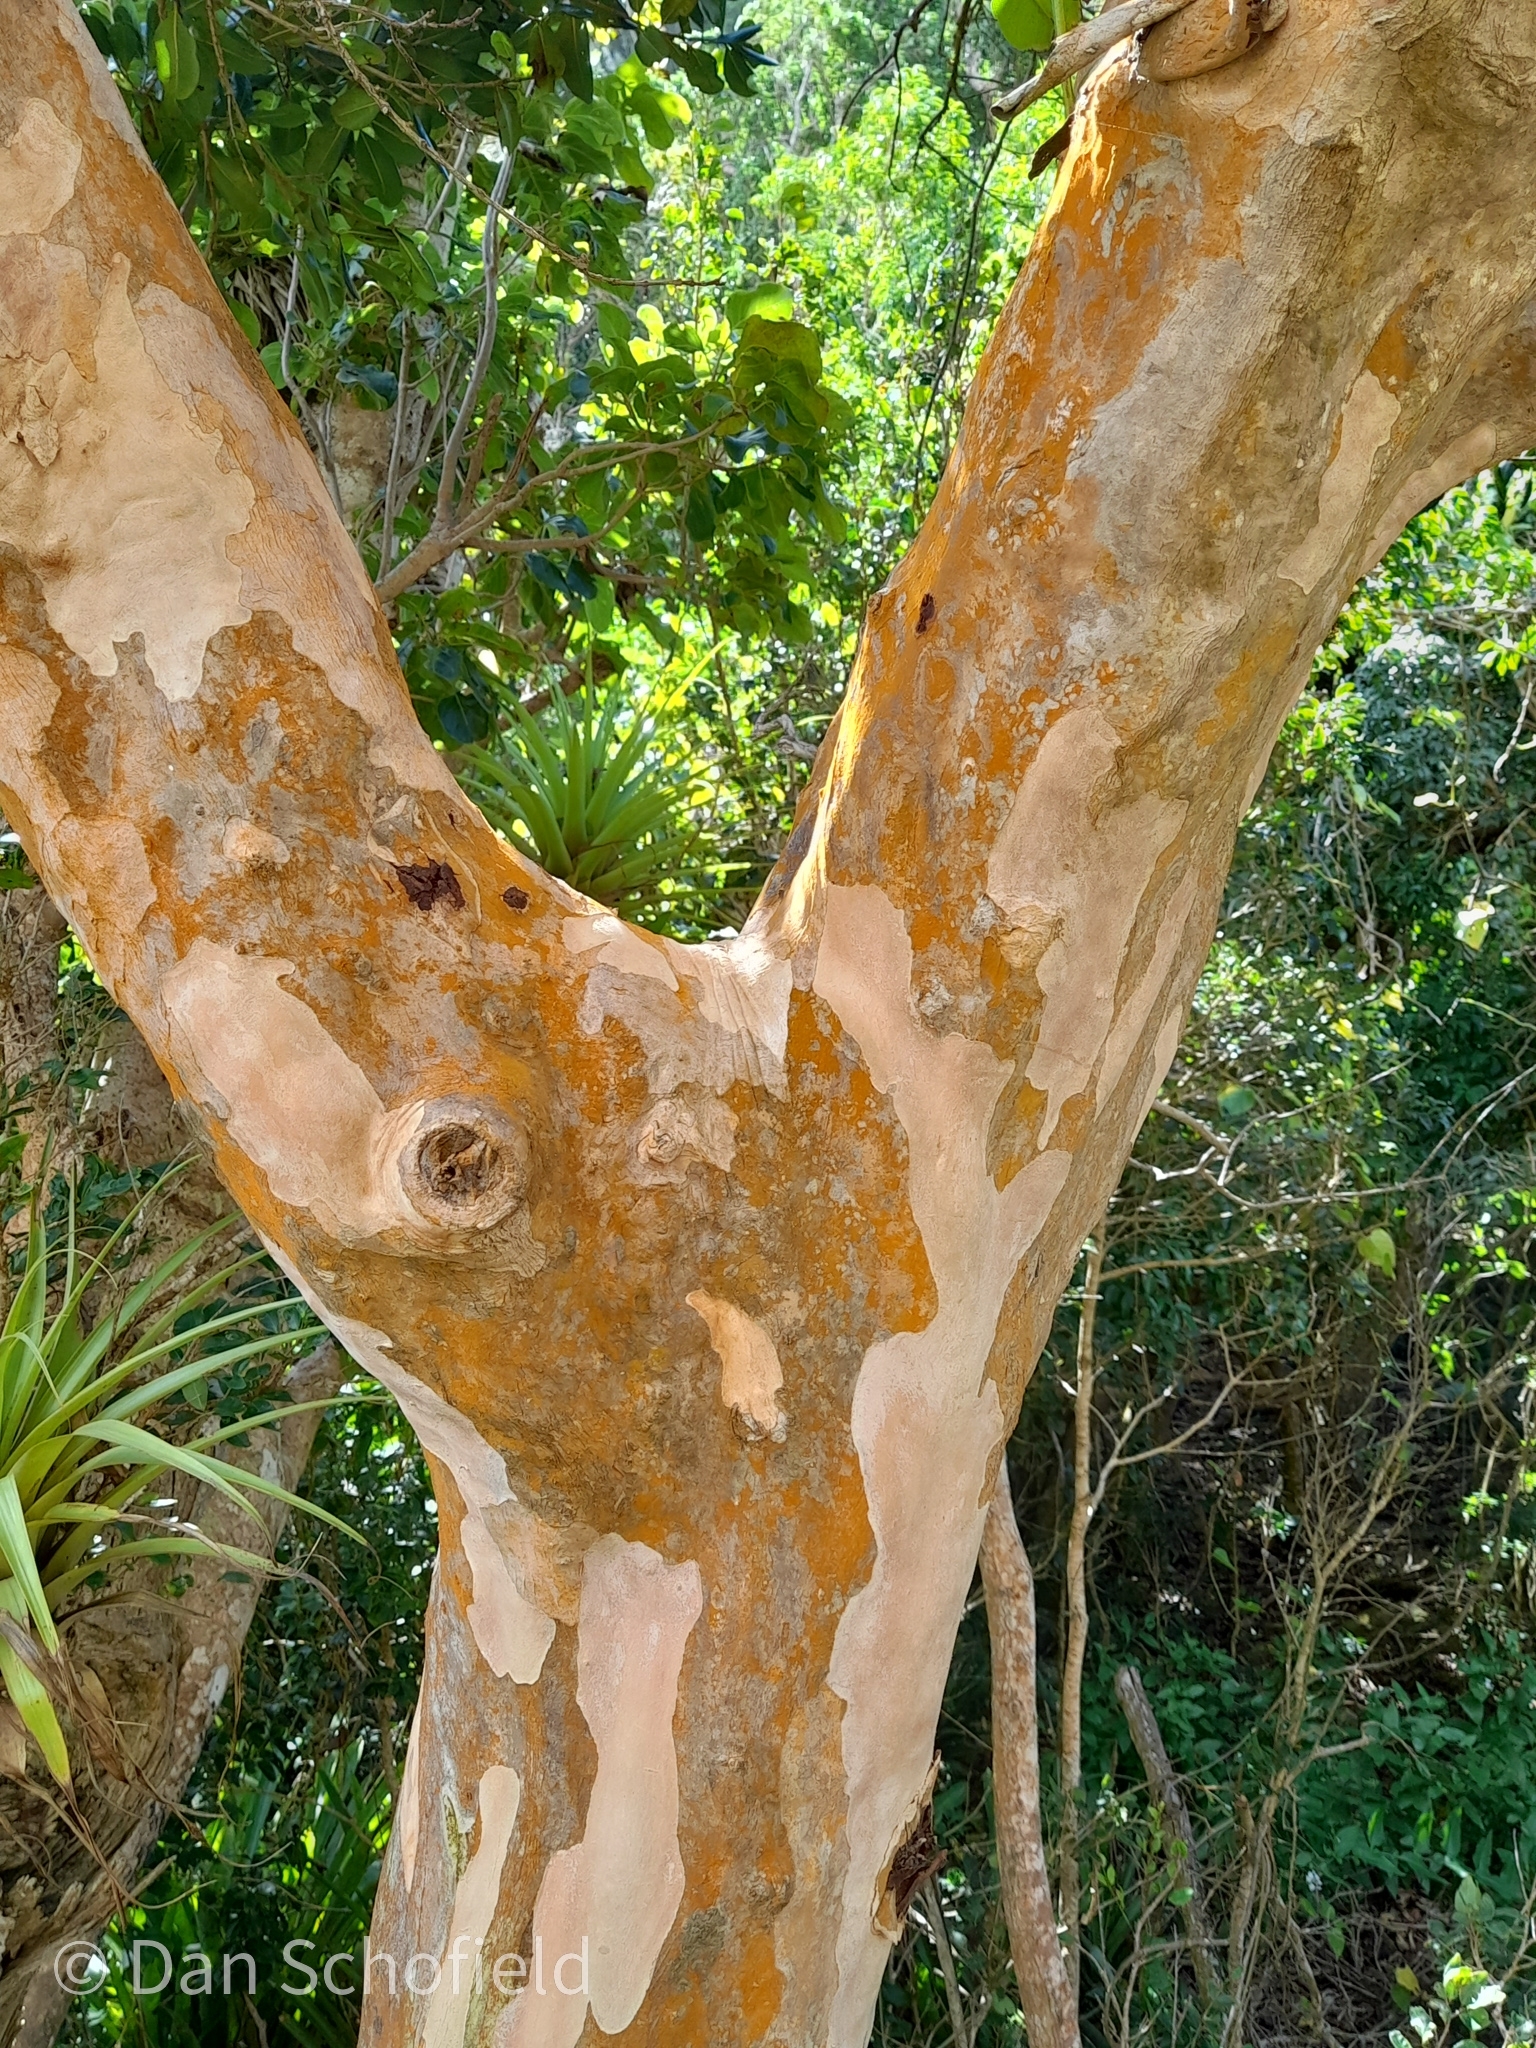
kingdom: Plantae
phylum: Tracheophyta
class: Magnoliopsida
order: Myrtales
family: Myrtaceae
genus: Pimenta
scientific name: Pimenta racemosa
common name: Bay rum tree
